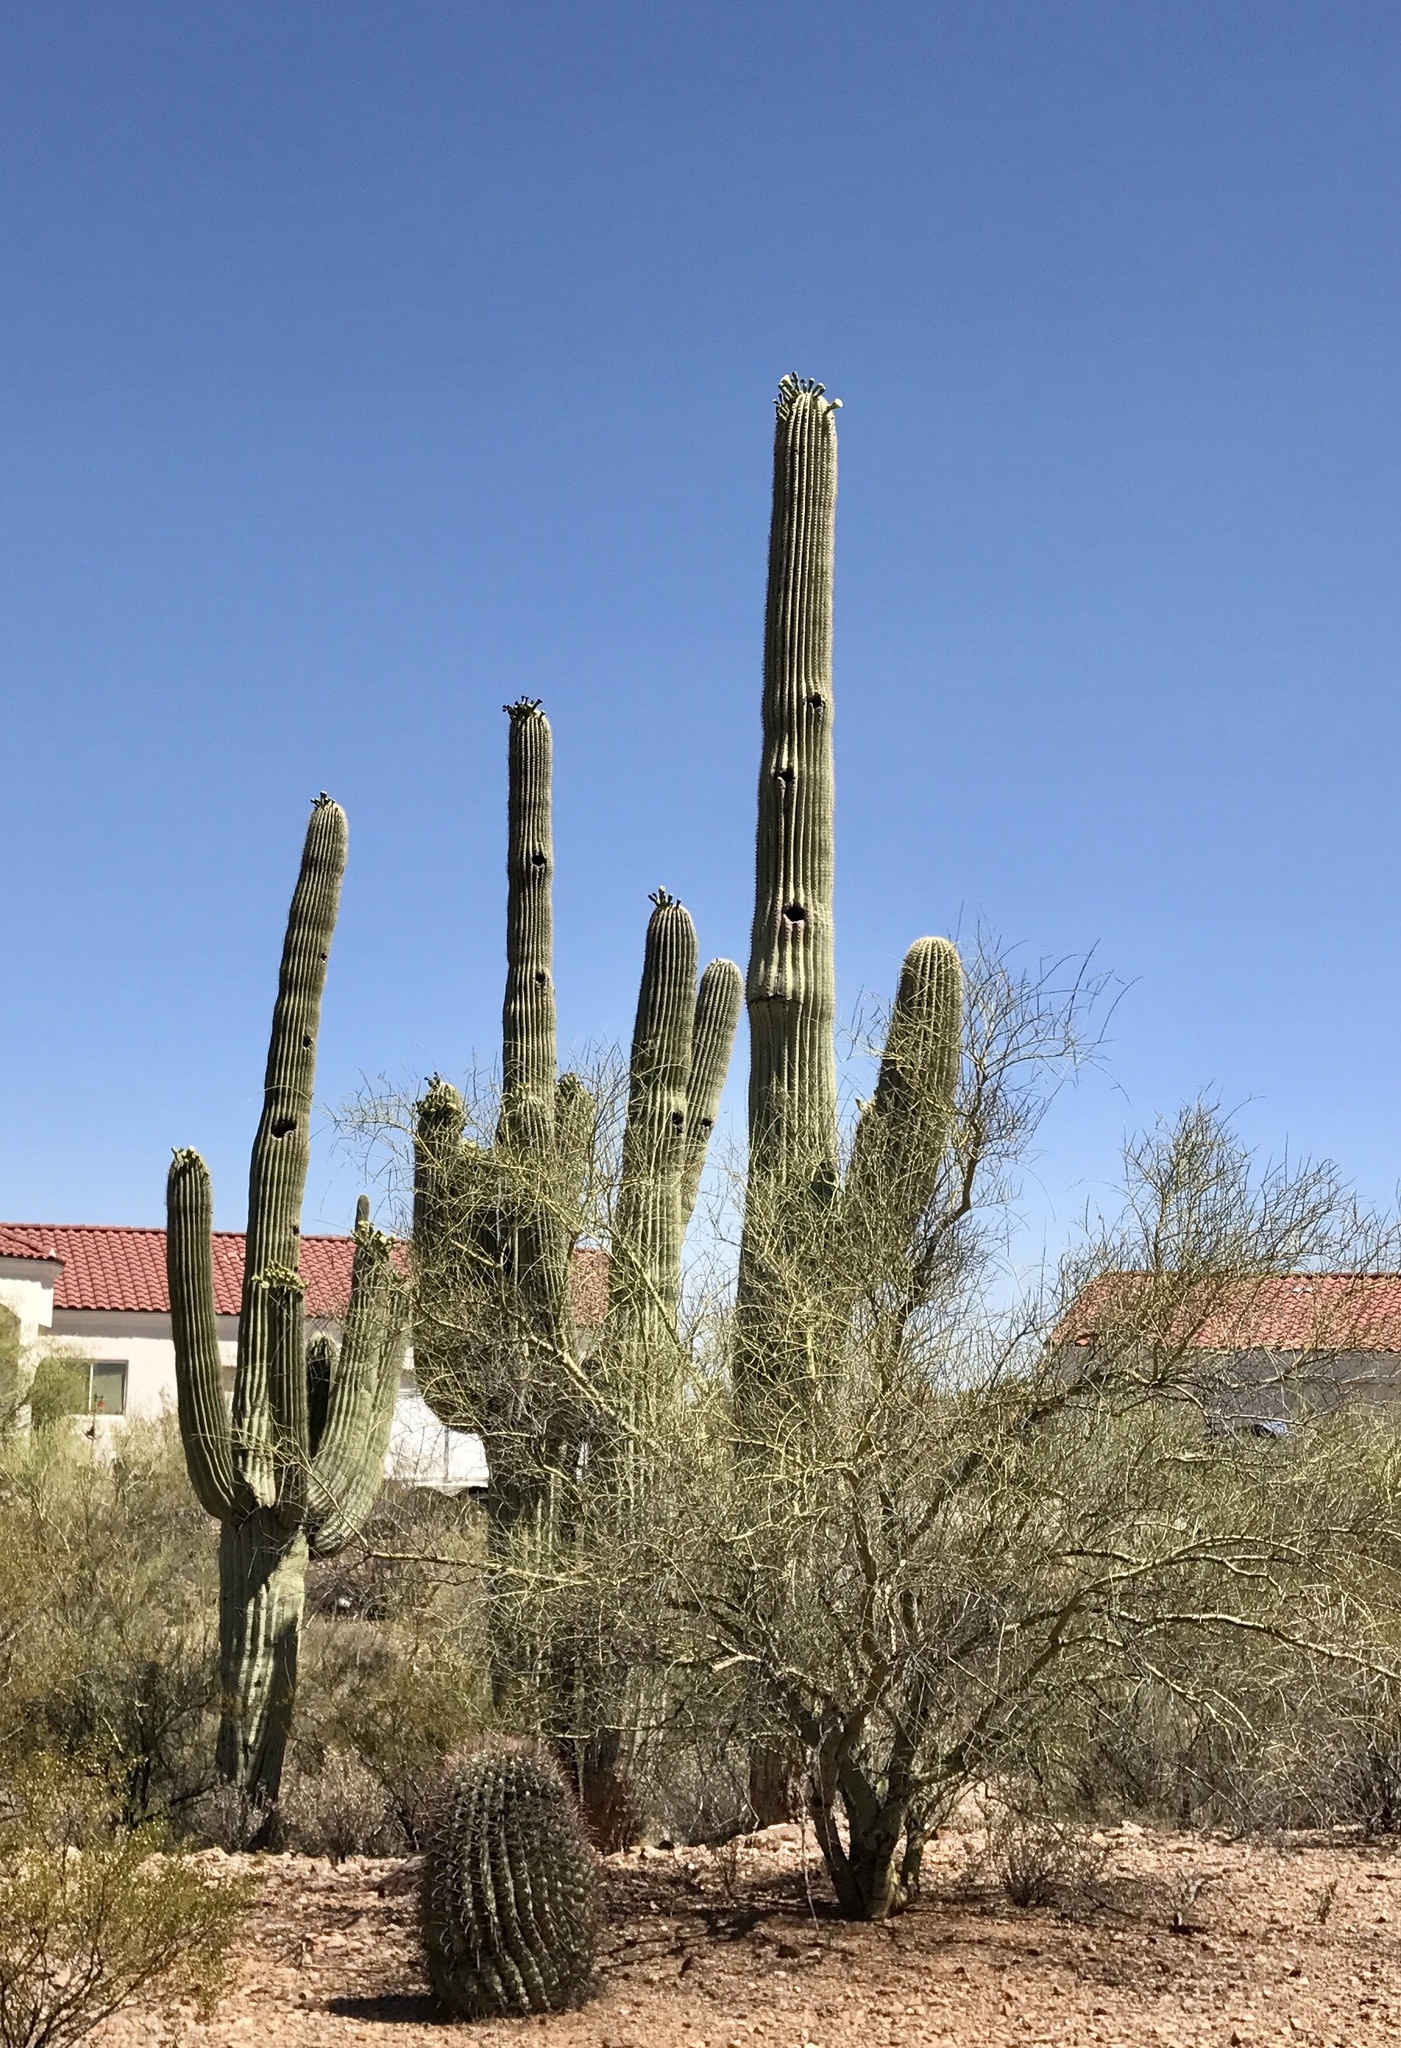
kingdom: Plantae
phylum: Tracheophyta
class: Magnoliopsida
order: Caryophyllales
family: Cactaceae
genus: Carnegiea
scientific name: Carnegiea gigantea
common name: Saguaro
